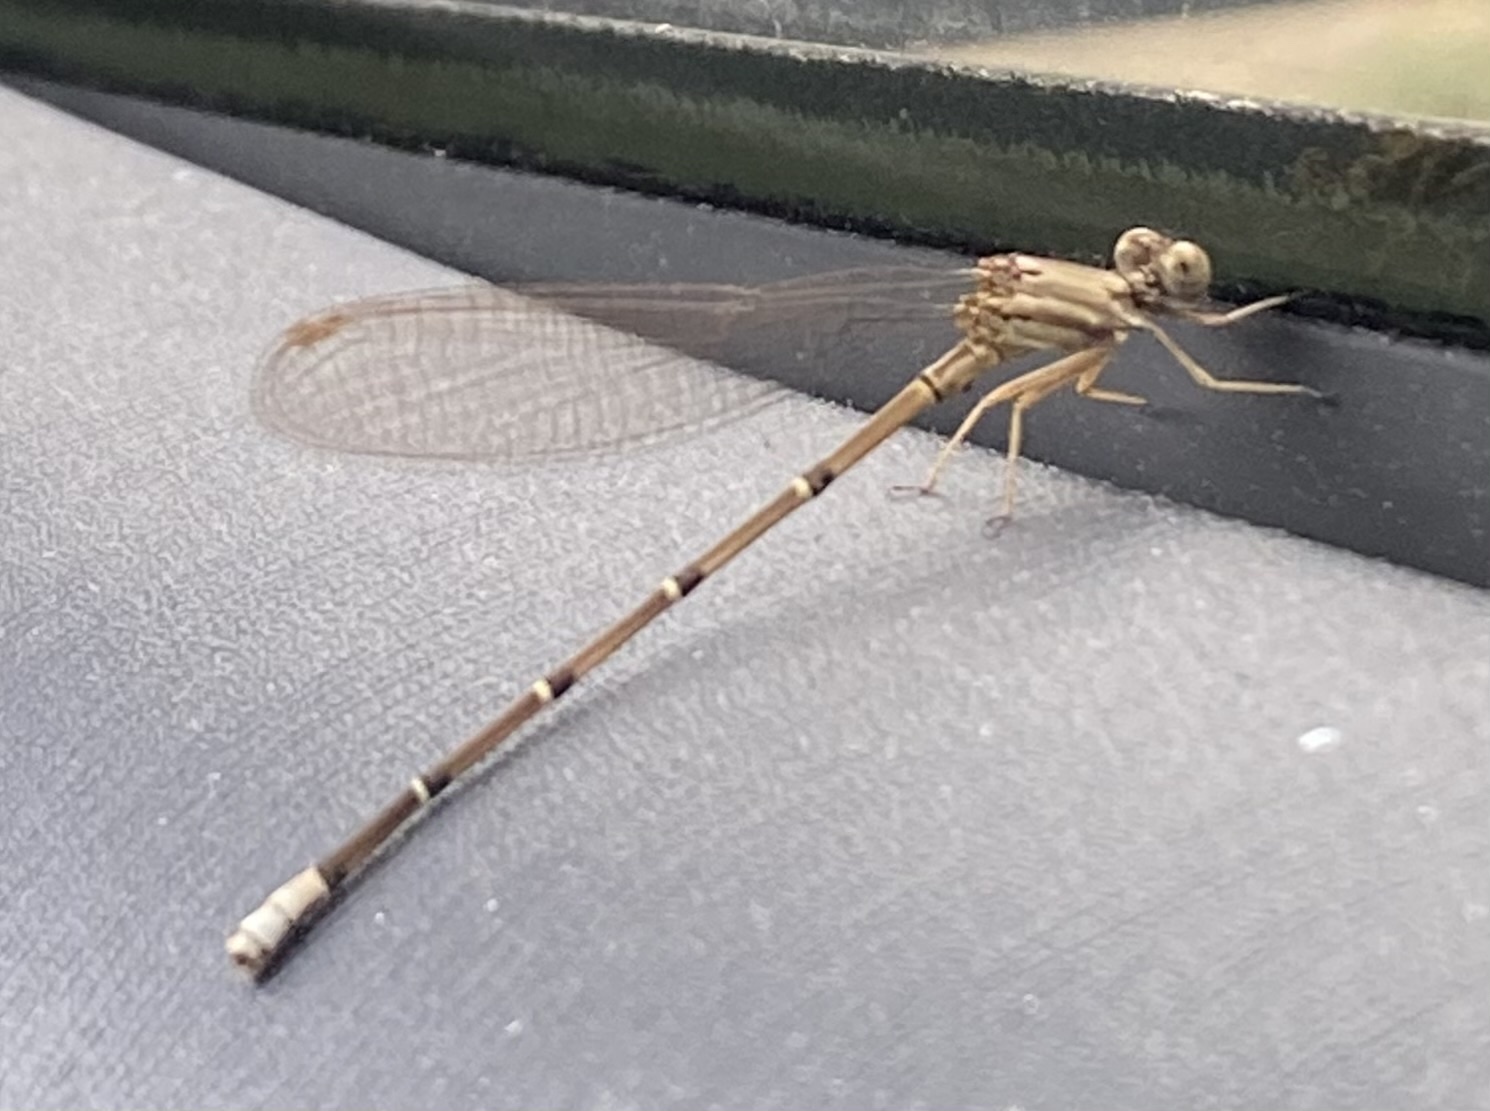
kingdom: Animalia
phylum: Arthropoda
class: Insecta
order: Odonata
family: Coenagrionidae
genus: Argia
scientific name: Argia apicalis
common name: Blue-fronted dancer
